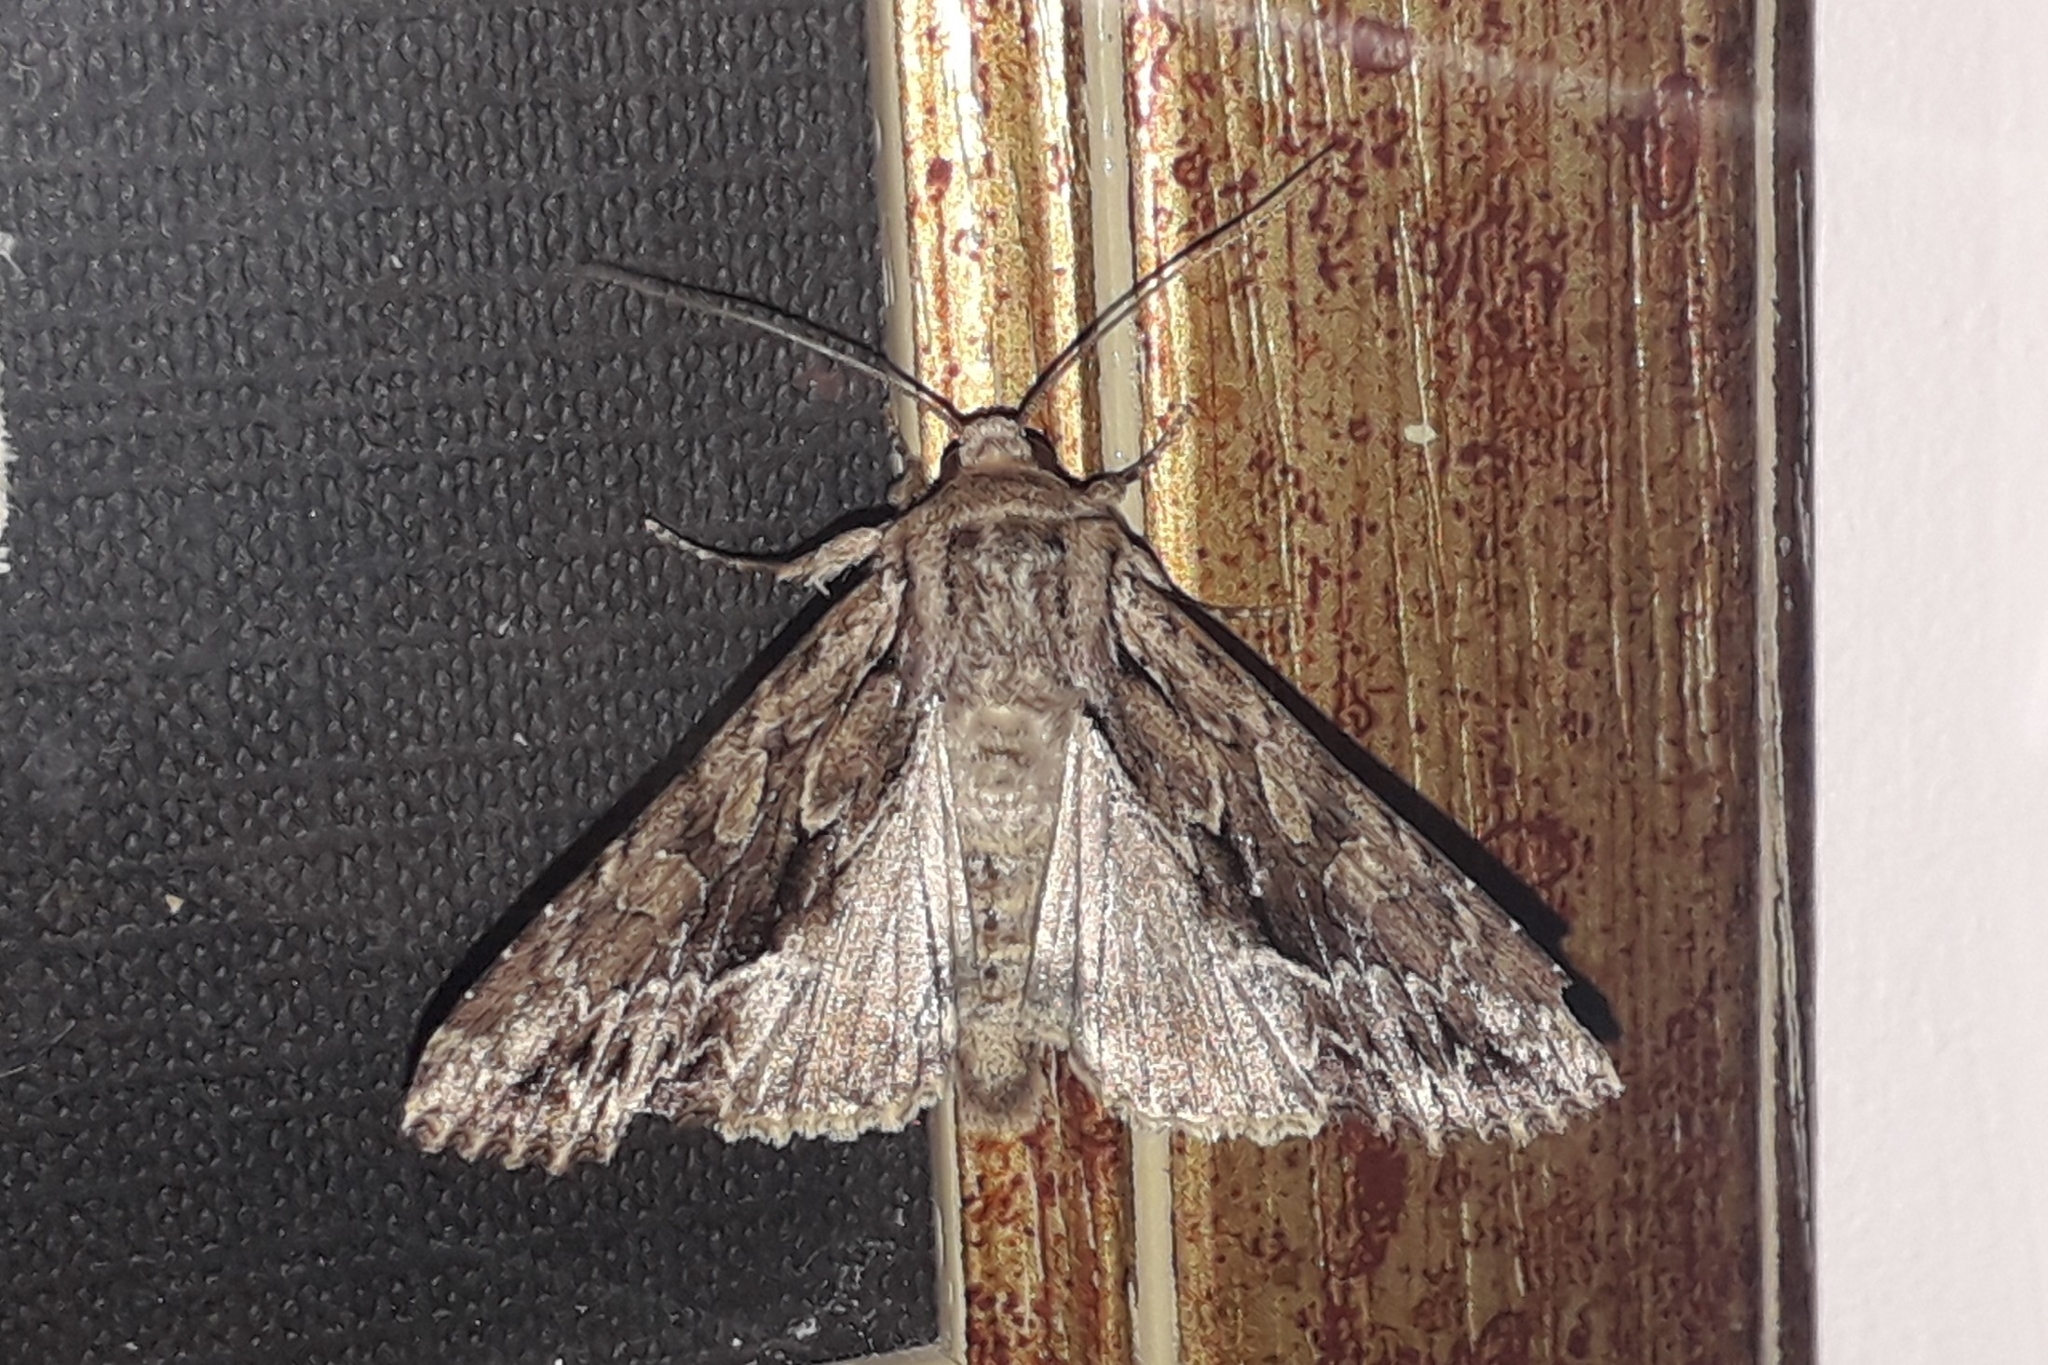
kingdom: Animalia
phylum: Arthropoda
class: Insecta
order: Lepidoptera
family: Noctuidae
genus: Apamea
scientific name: Apamea monoglypha
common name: Dark arches
